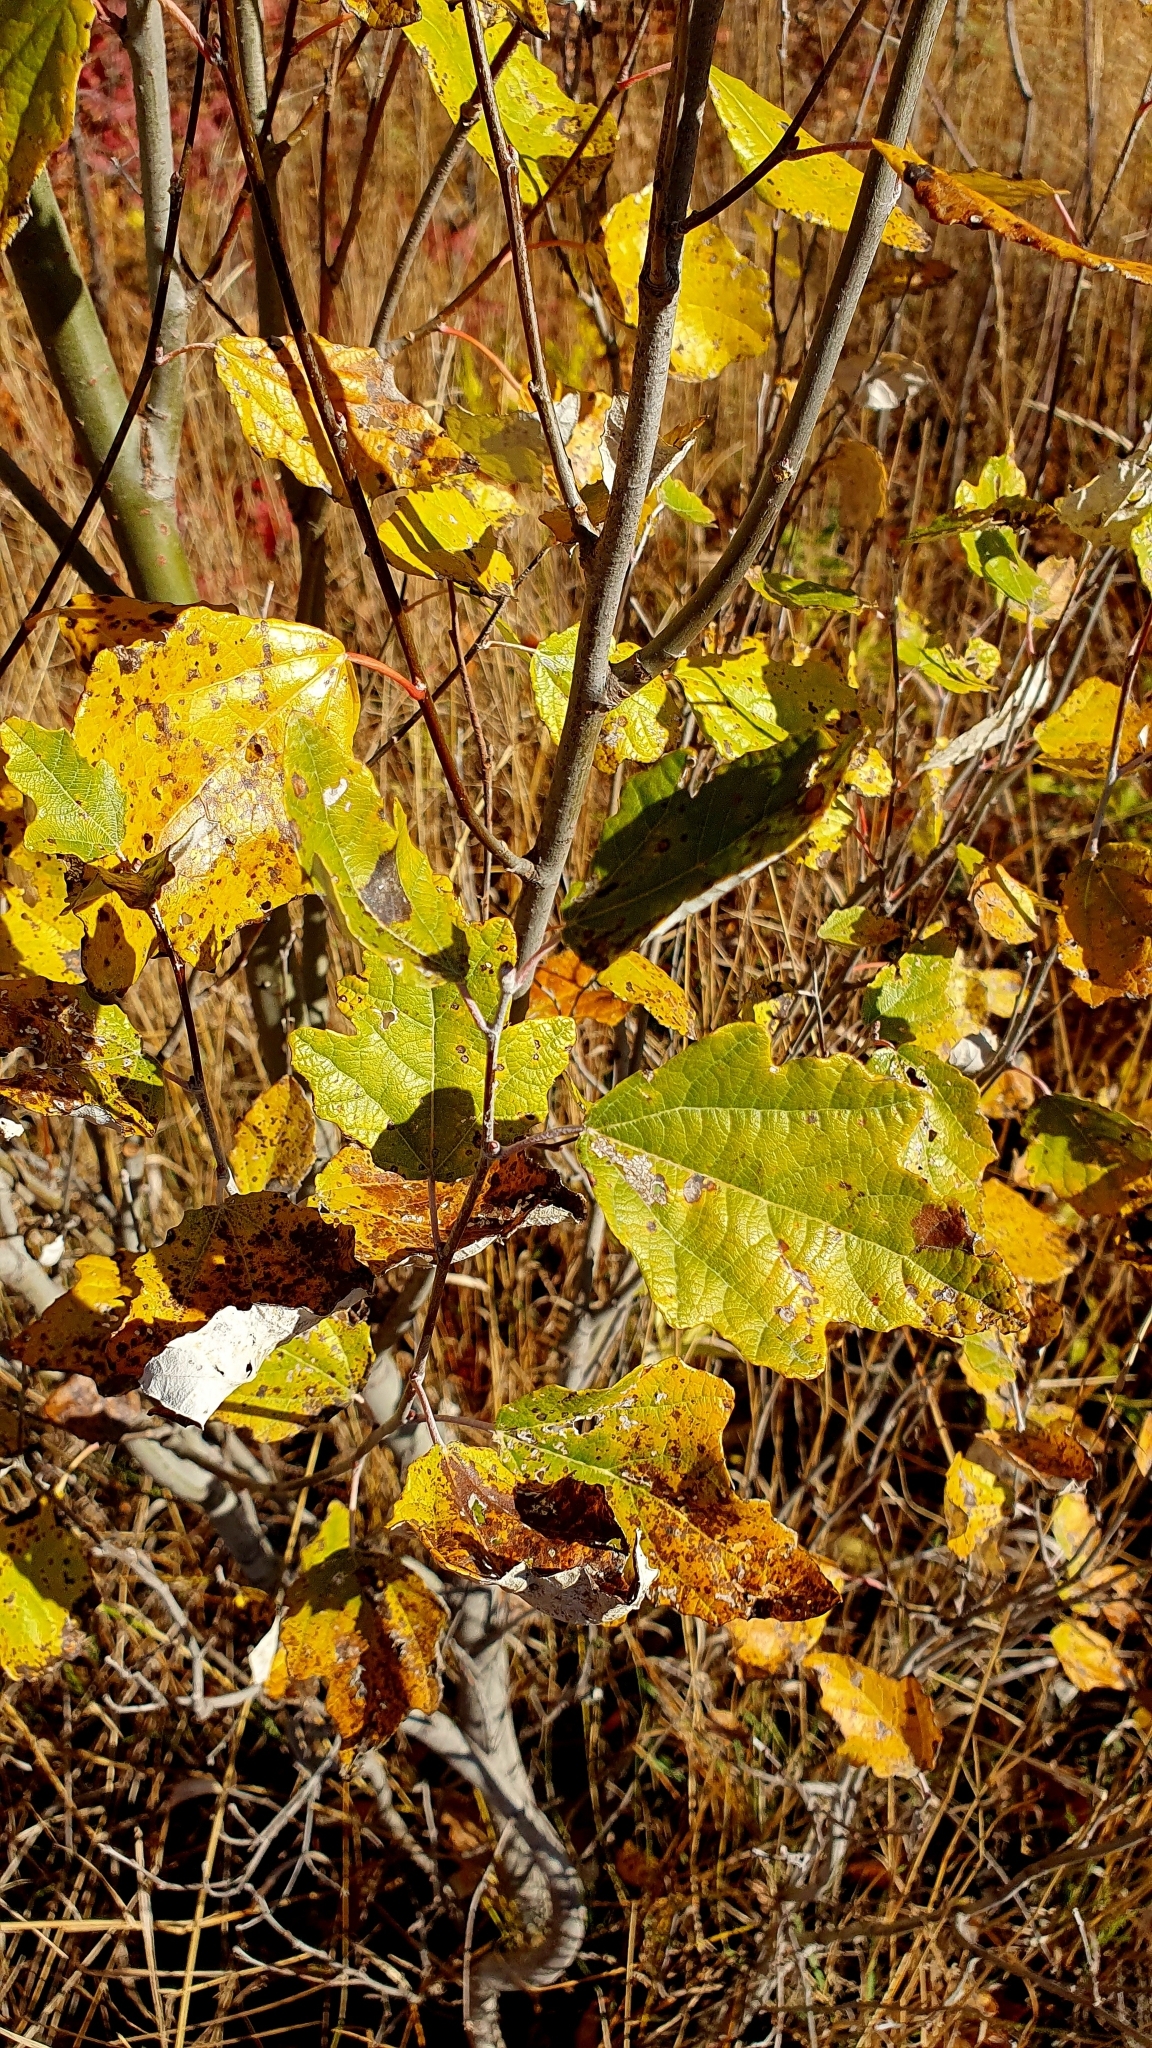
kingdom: Plantae
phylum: Tracheophyta
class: Magnoliopsida
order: Malpighiales
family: Salicaceae
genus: Populus
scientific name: Populus alba
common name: White poplar
